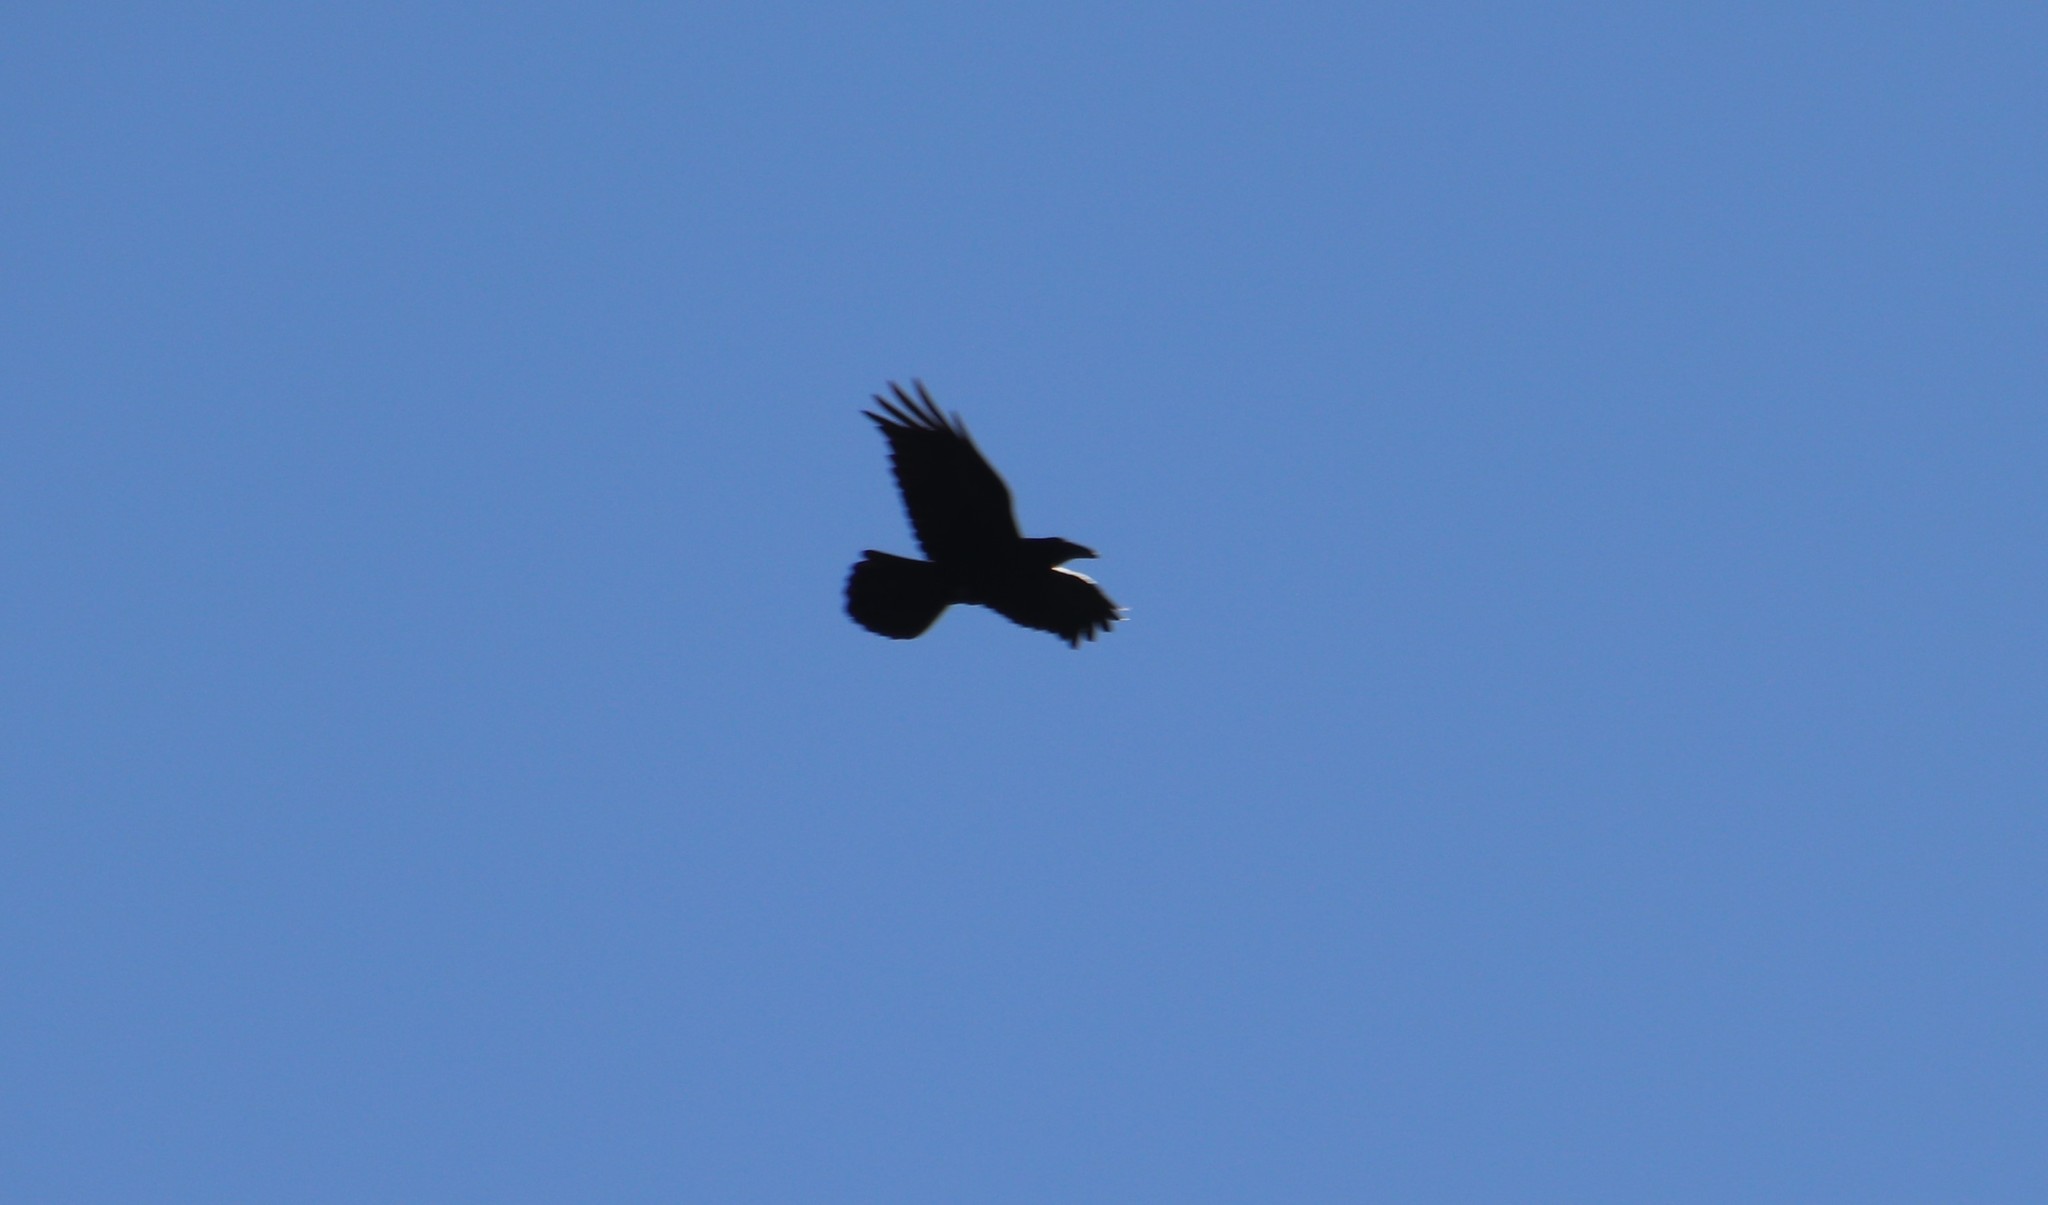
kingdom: Animalia
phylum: Chordata
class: Aves
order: Passeriformes
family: Corvidae
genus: Corvus
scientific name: Corvus corax
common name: Common raven
